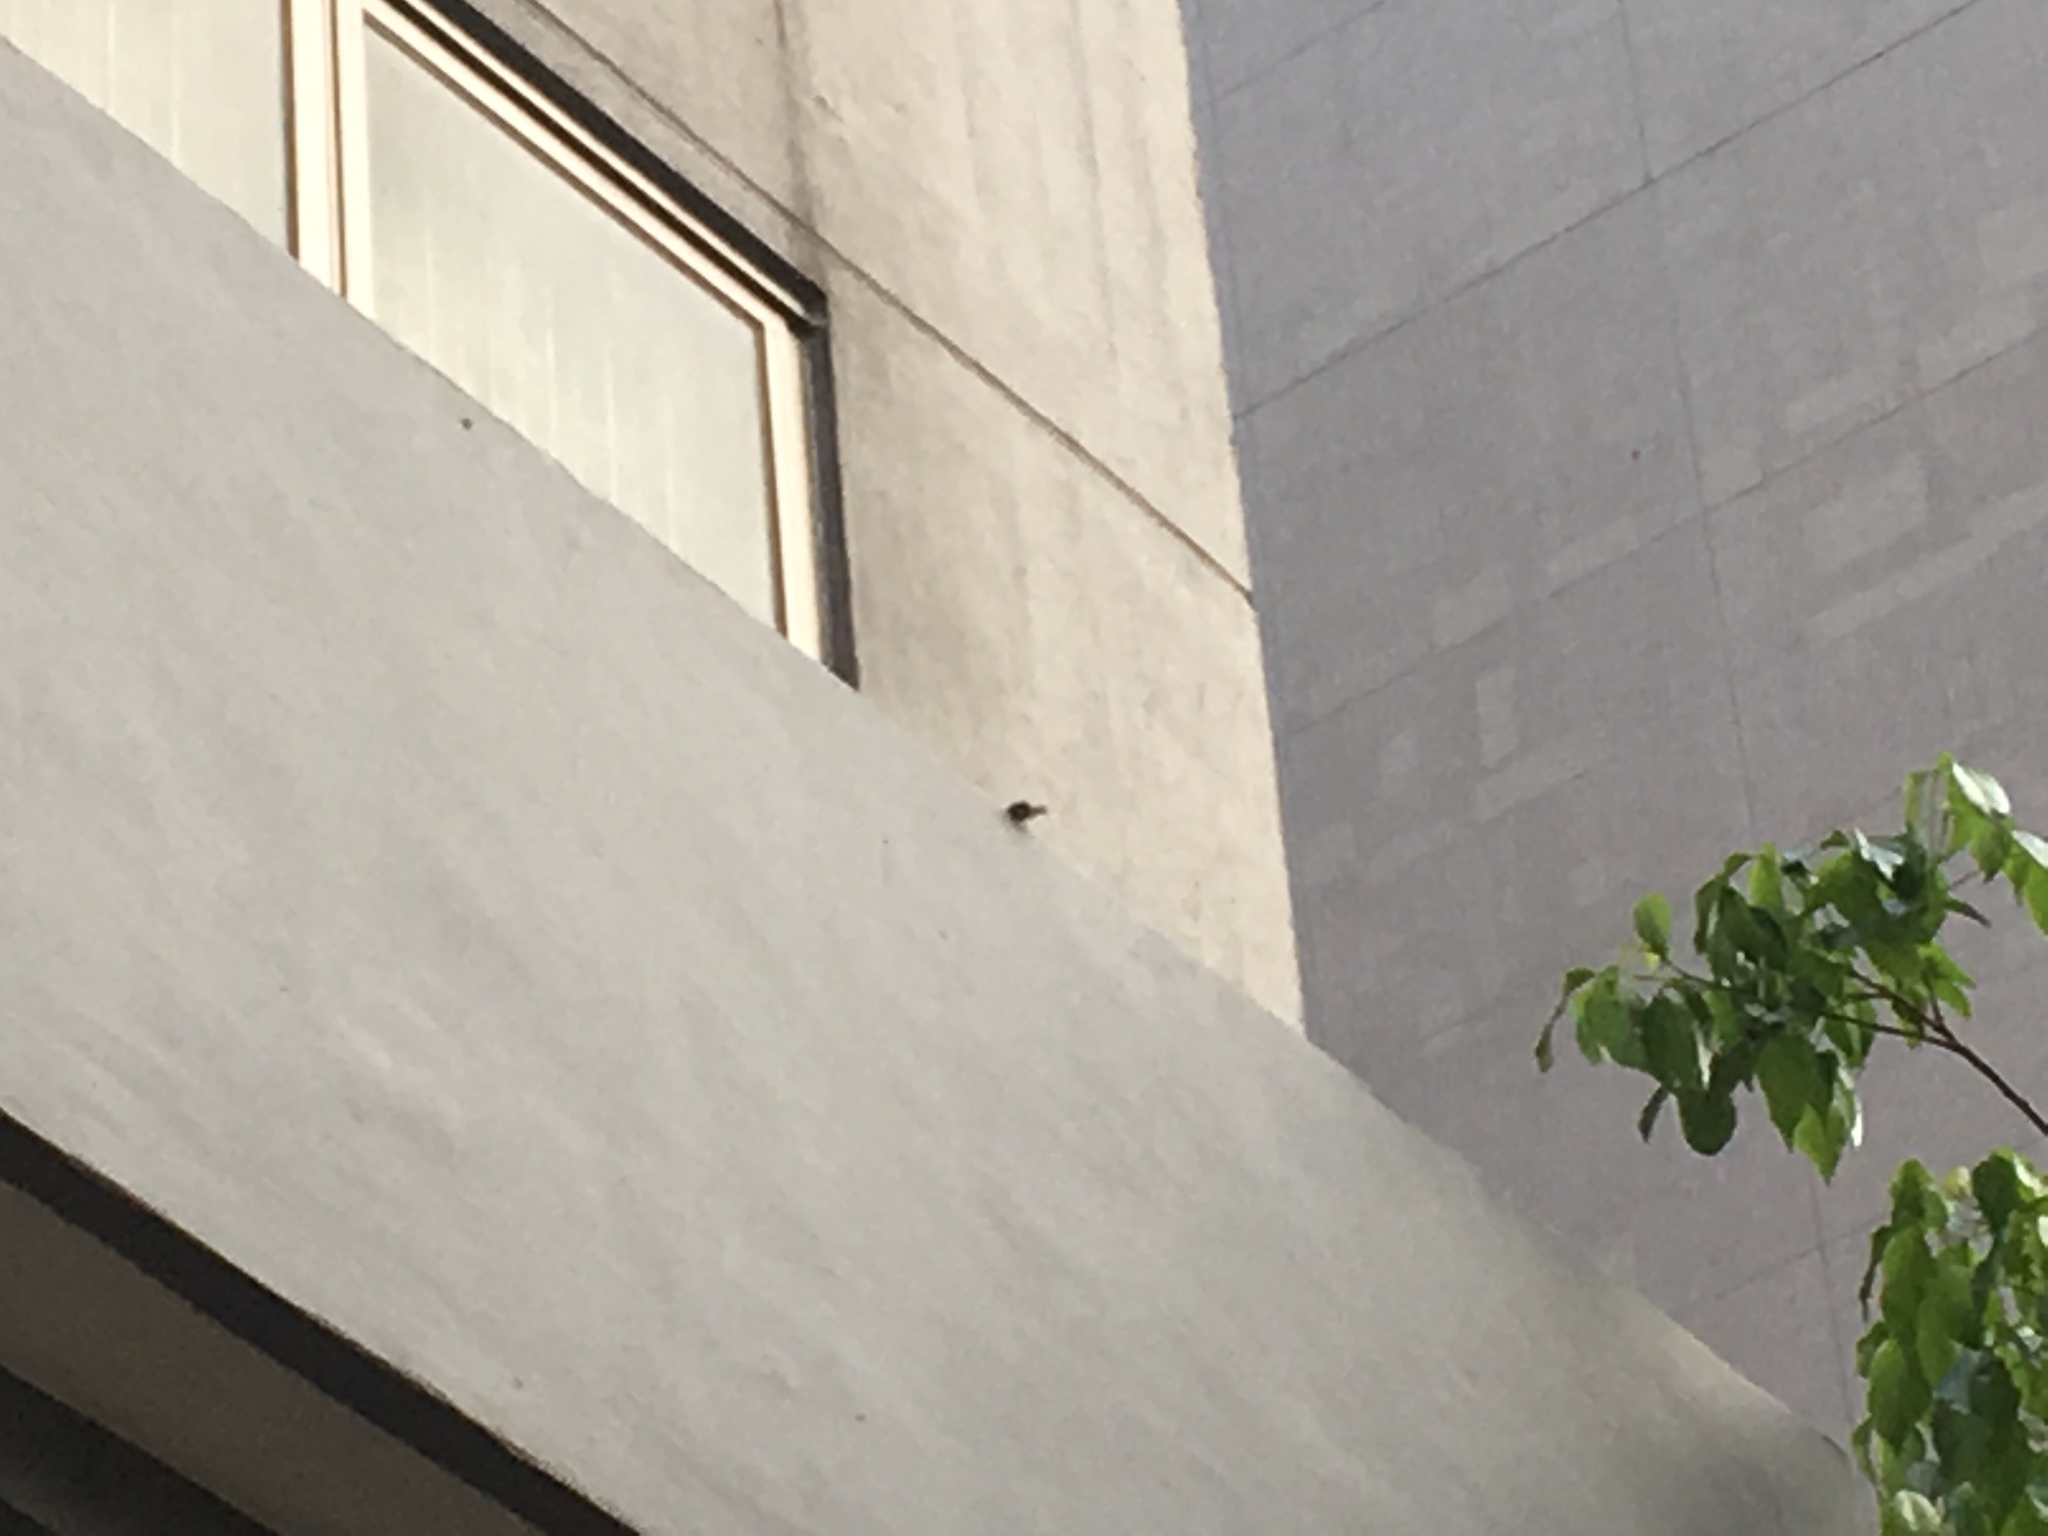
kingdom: Animalia
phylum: Chordata
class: Aves
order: Passeriformes
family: Pycnonotidae
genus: Pycnonotus
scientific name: Pycnonotus jocosus
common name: Red-whiskered bulbul
